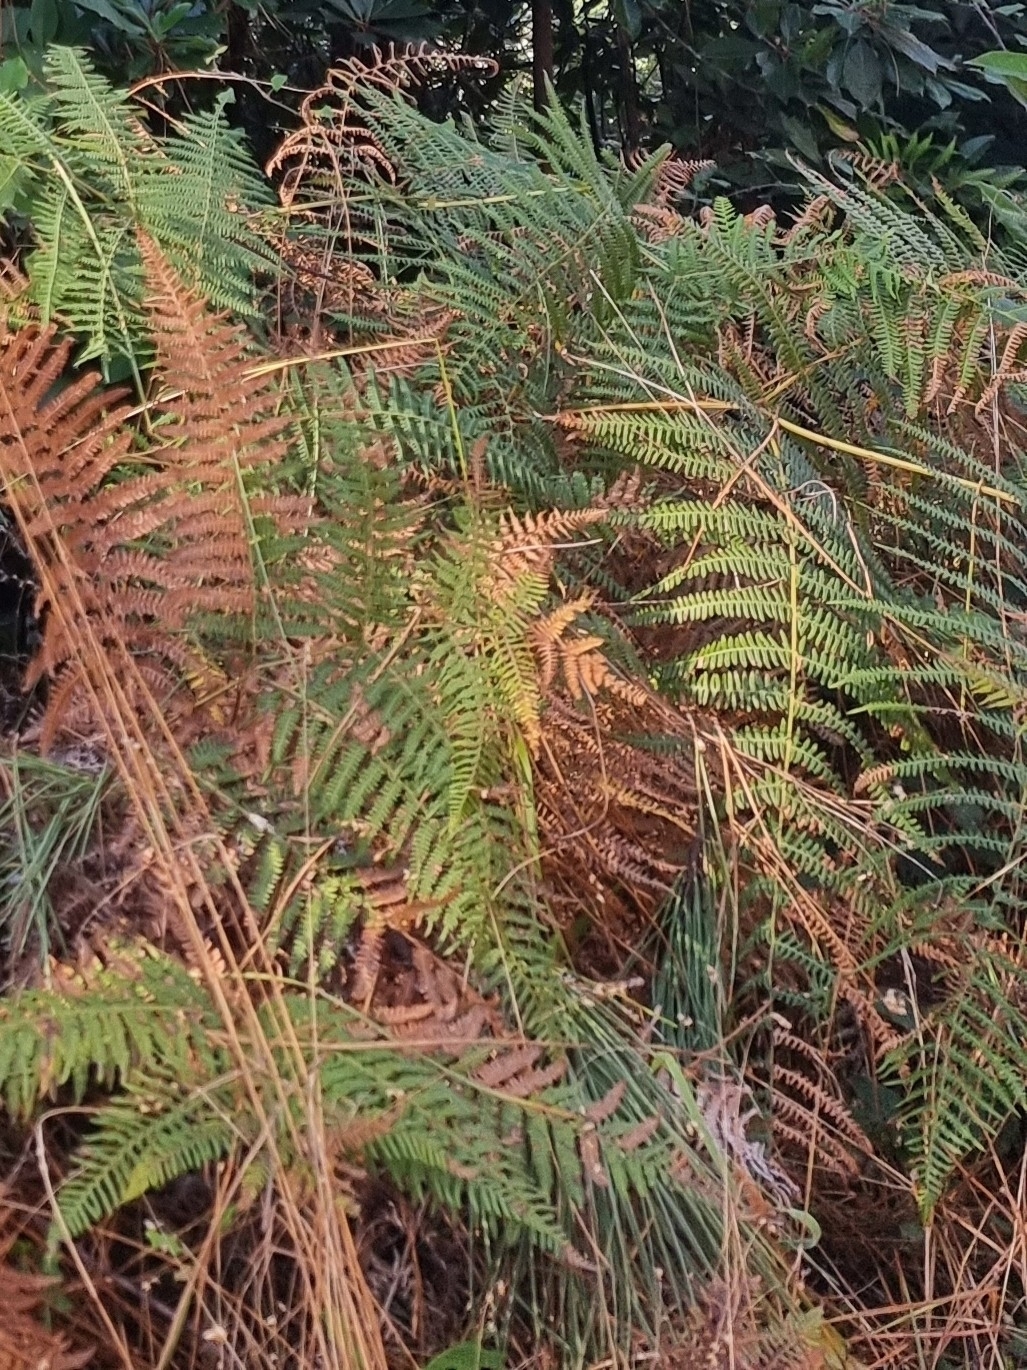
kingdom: Plantae
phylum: Tracheophyta
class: Polypodiopsida
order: Polypodiales
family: Dennstaedtiaceae
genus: Pteridium
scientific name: Pteridium aquilinum
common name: Bracken
